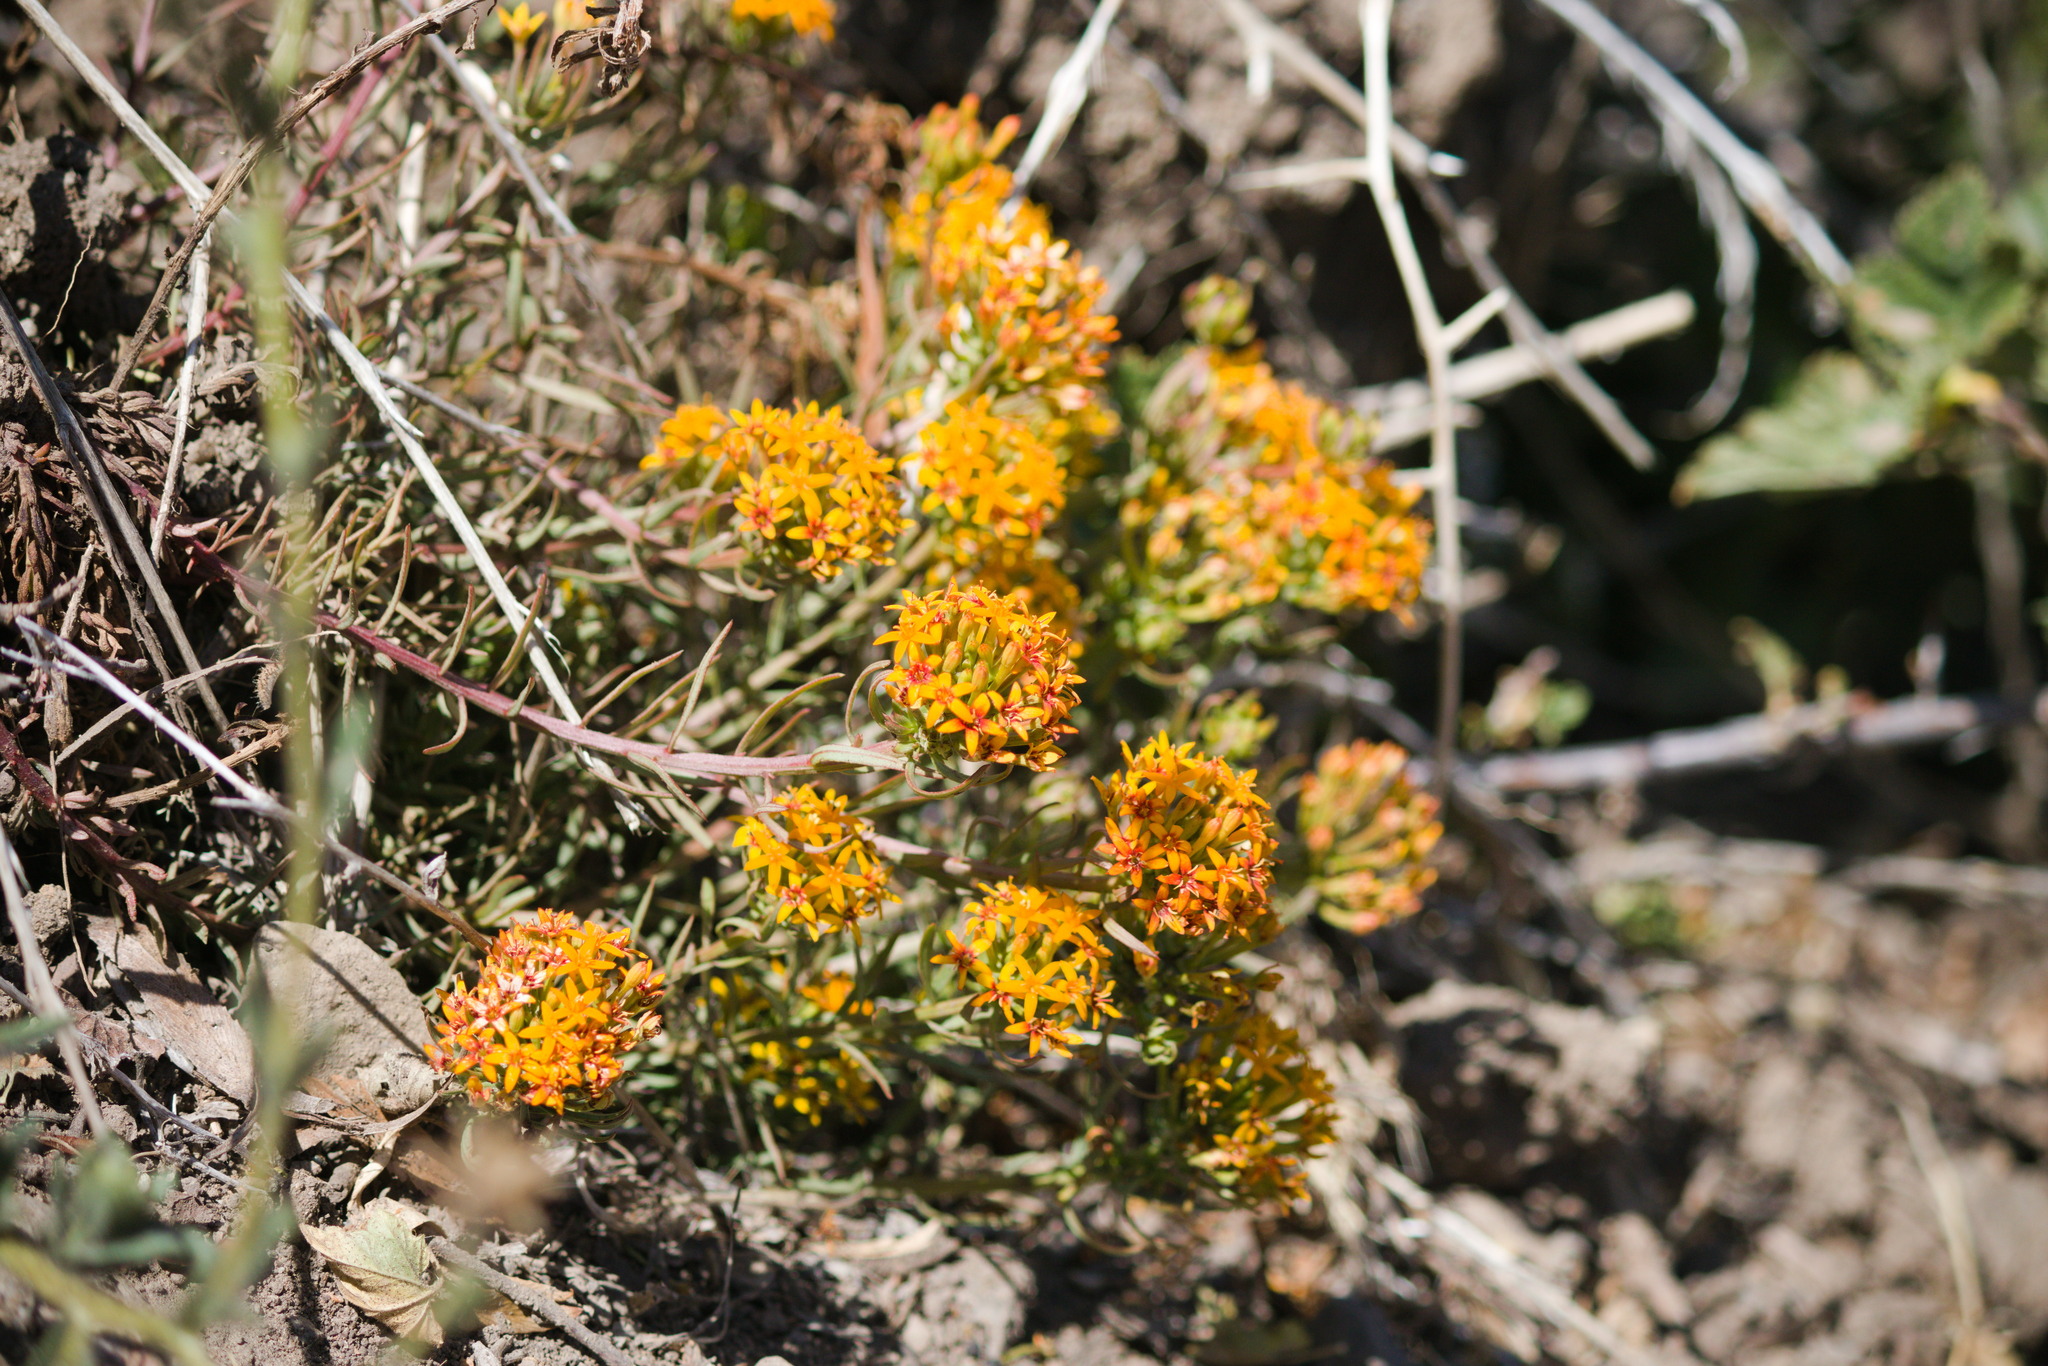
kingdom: Plantae
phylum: Tracheophyta
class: Magnoliopsida
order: Santalales
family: Schoepfiaceae
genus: Quinchamalium
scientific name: Quinchamalium chilense
